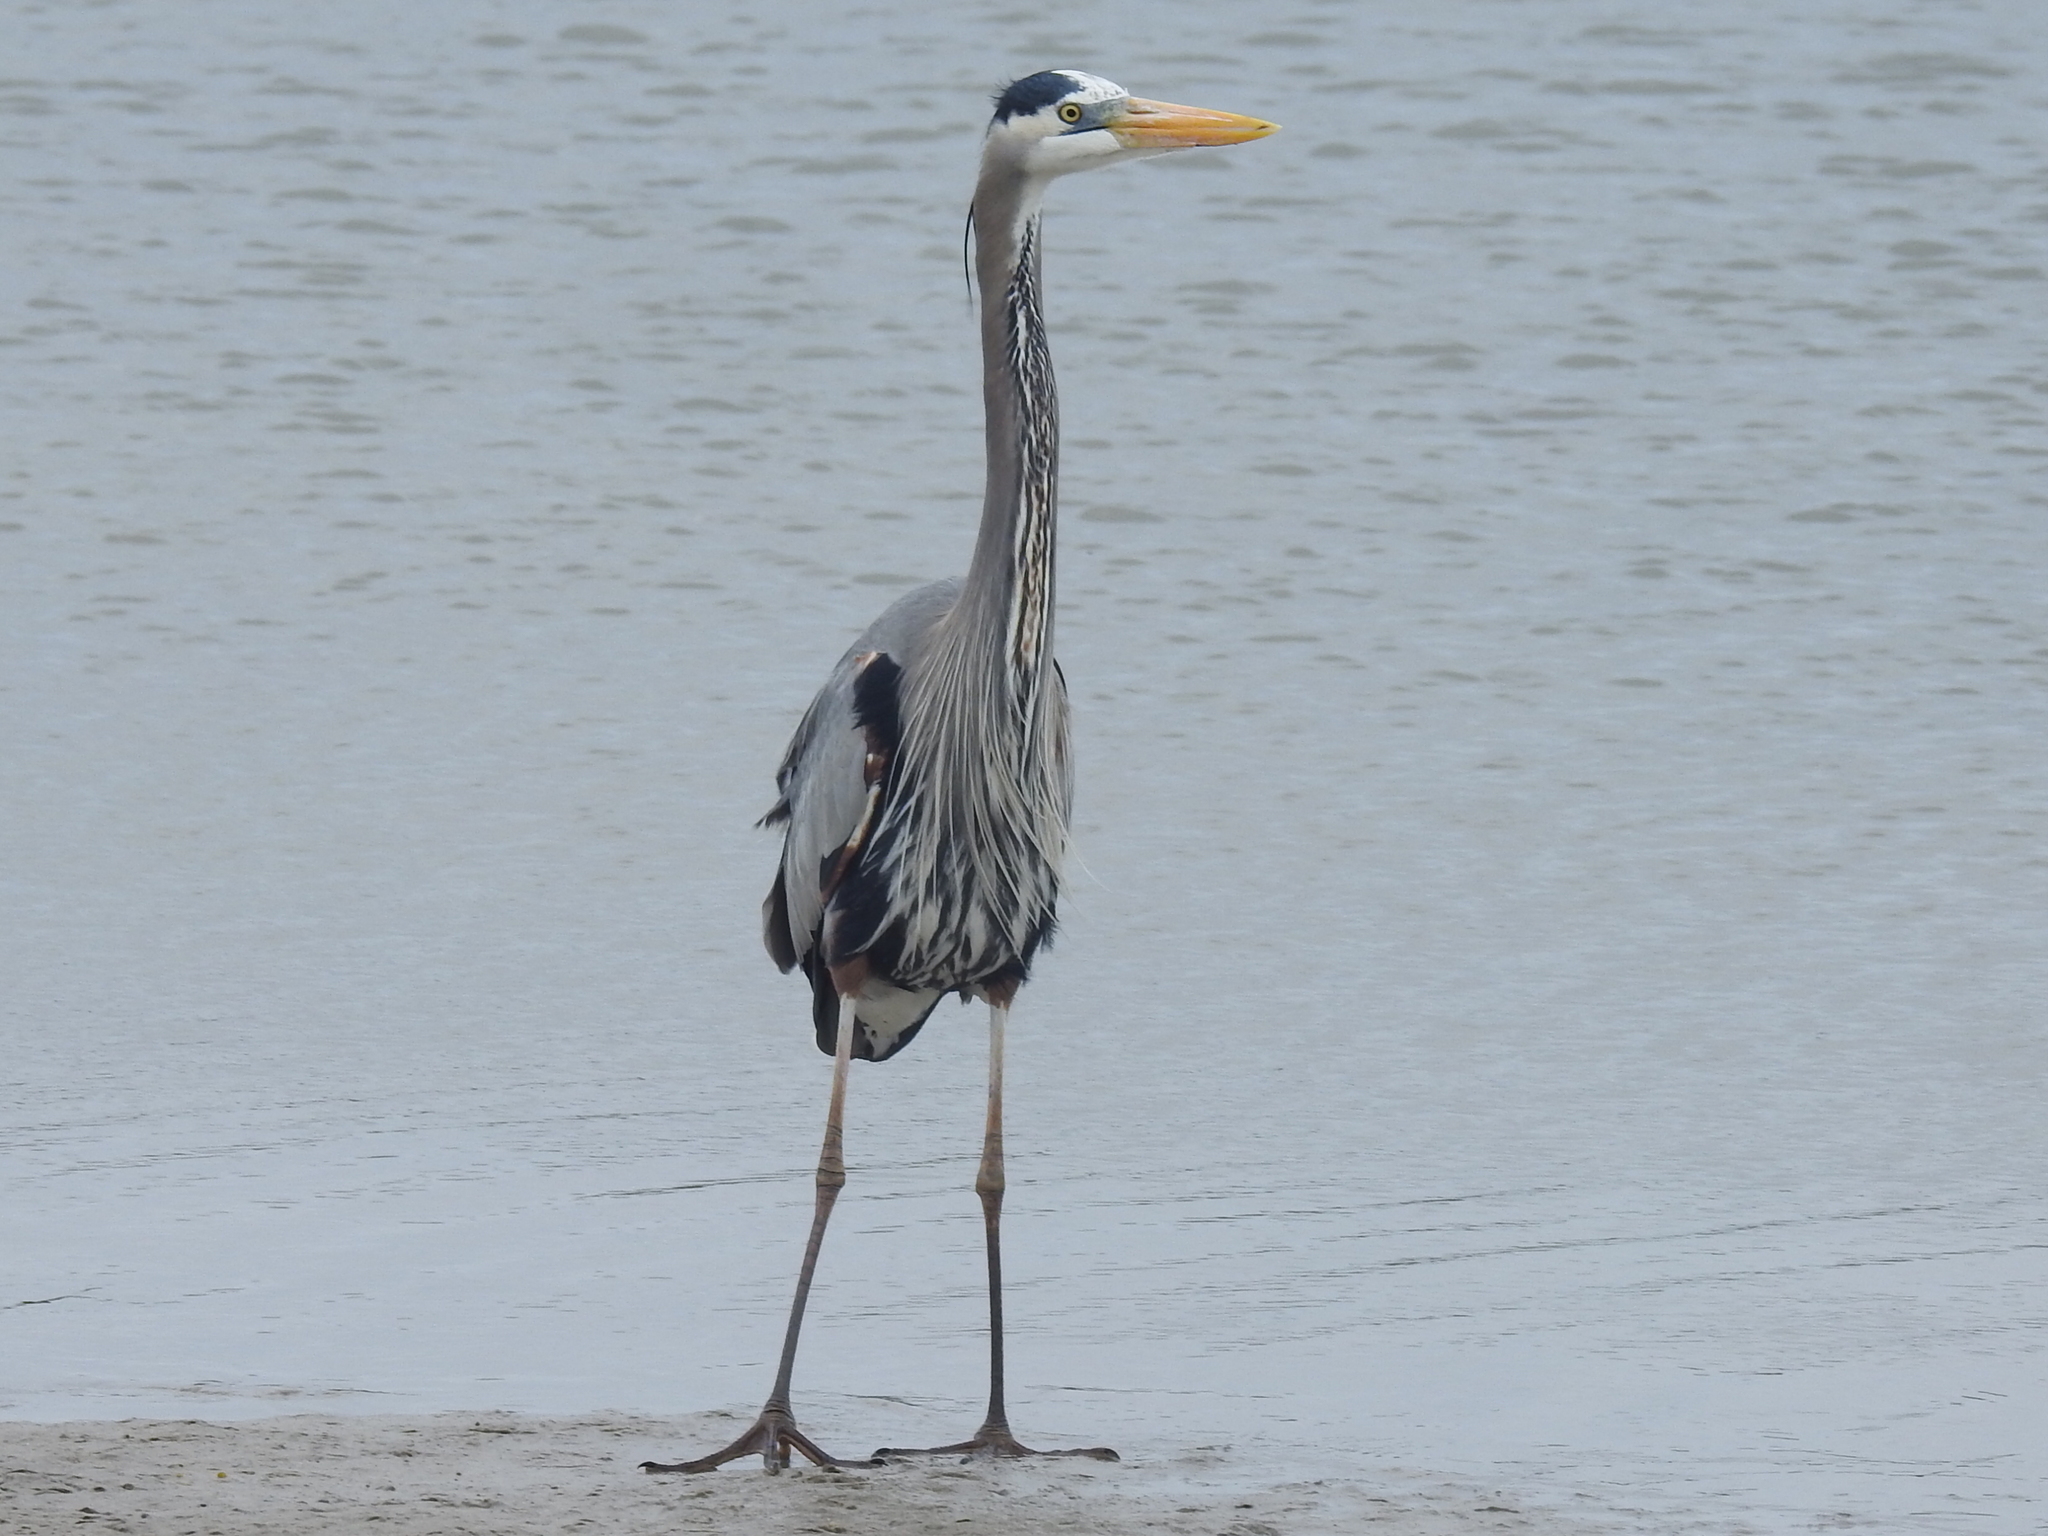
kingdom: Animalia
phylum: Chordata
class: Aves
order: Pelecaniformes
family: Ardeidae
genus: Ardea
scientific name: Ardea herodias
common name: Great blue heron
